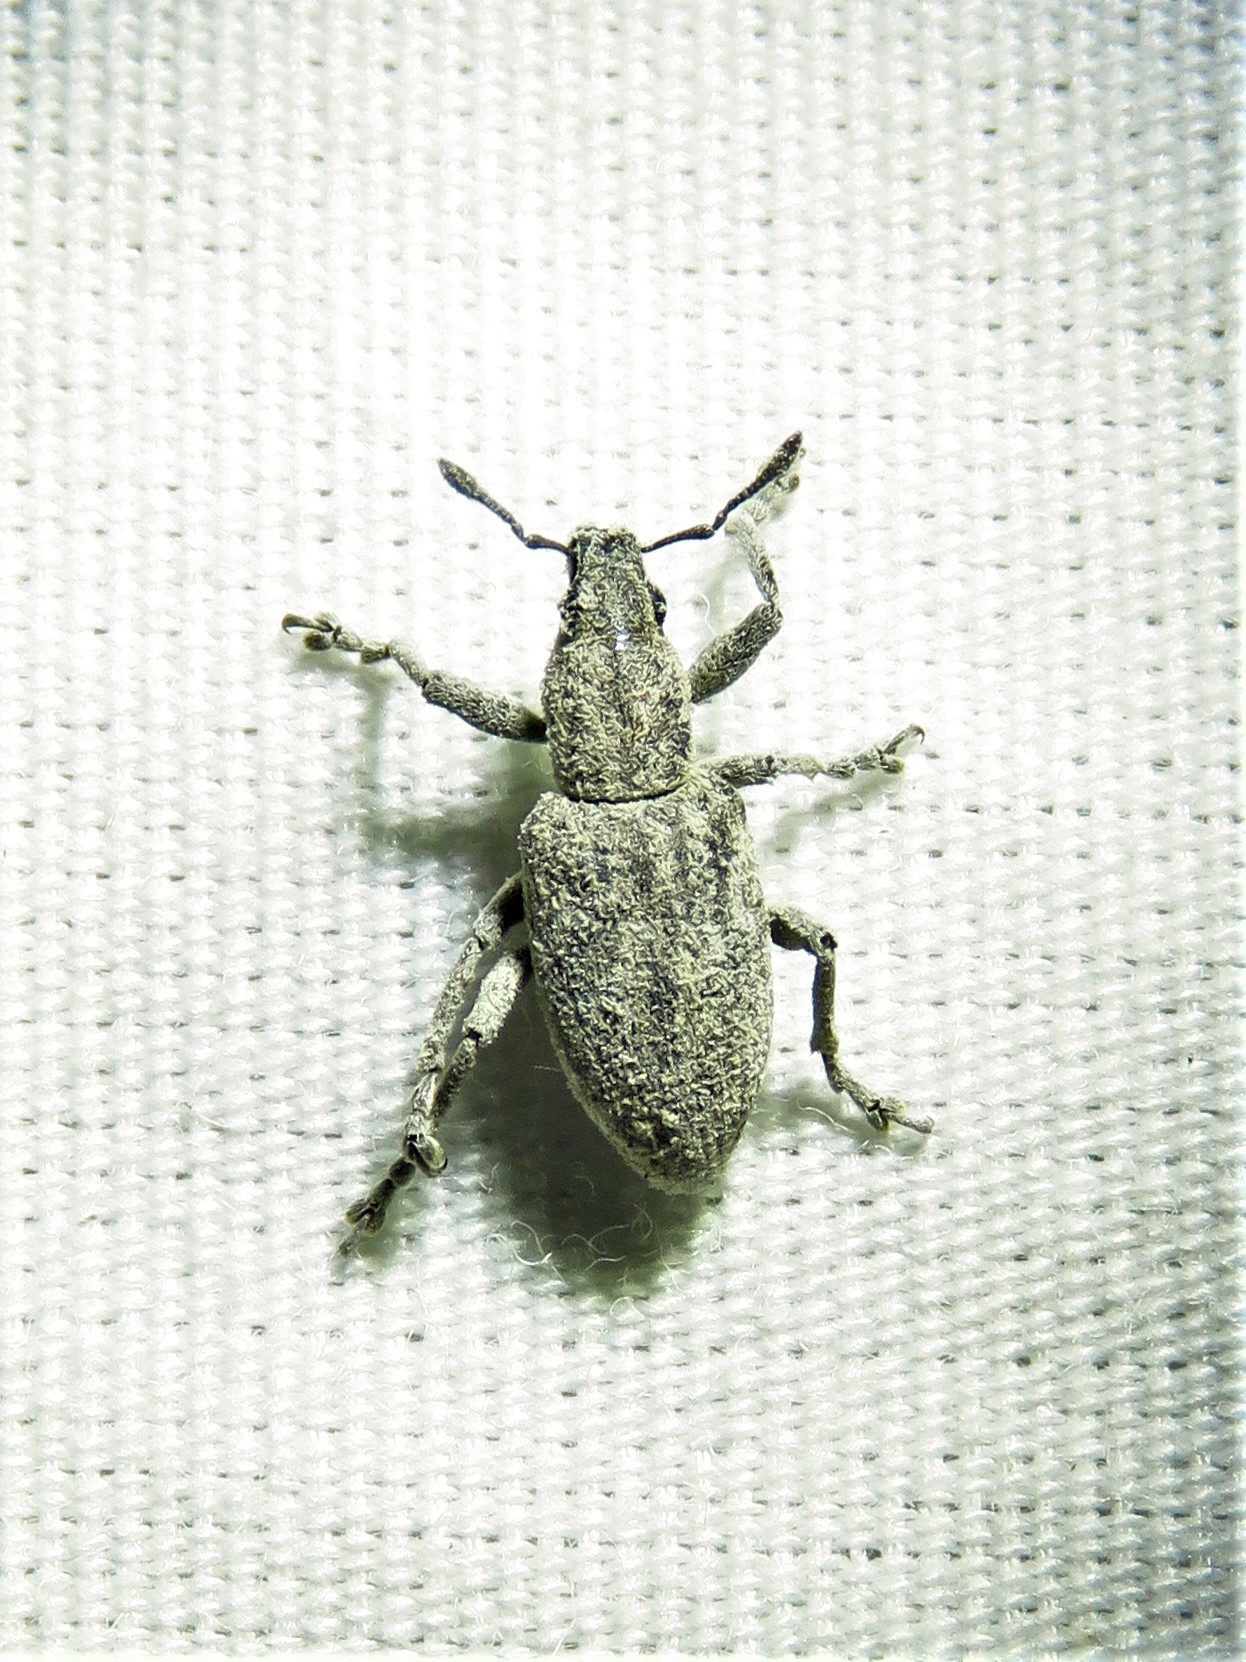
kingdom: Animalia
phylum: Arthropoda
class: Insecta
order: Coleoptera
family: Curculionidae
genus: Tanymecus
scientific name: Tanymecus confusus
